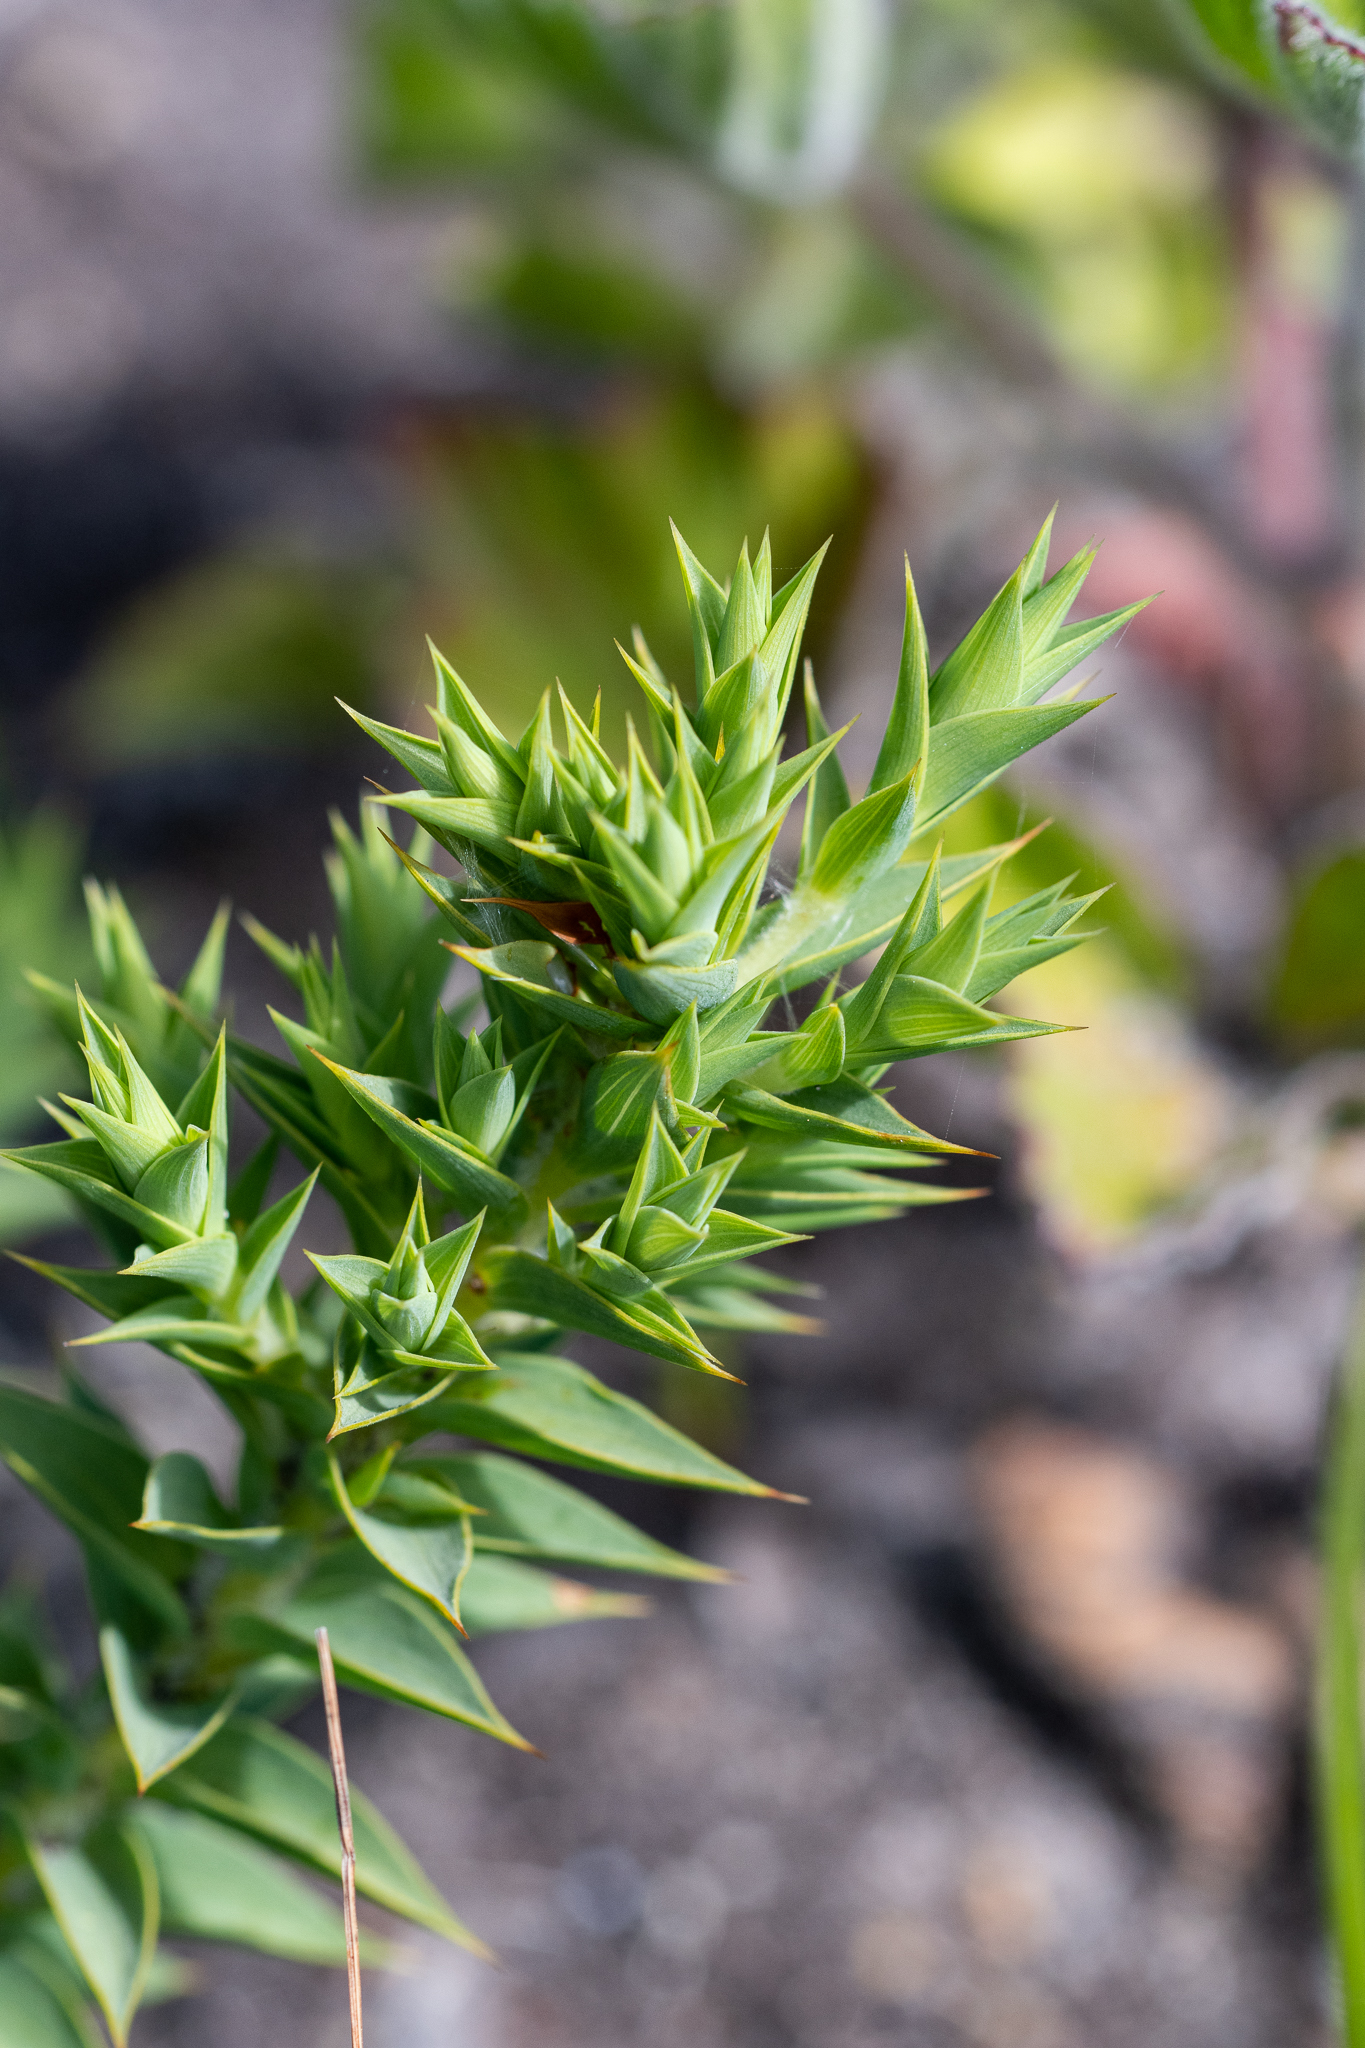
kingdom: Plantae
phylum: Tracheophyta
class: Magnoliopsida
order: Fabales
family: Fabaceae
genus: Aspalathus
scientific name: Aspalathus cordata
